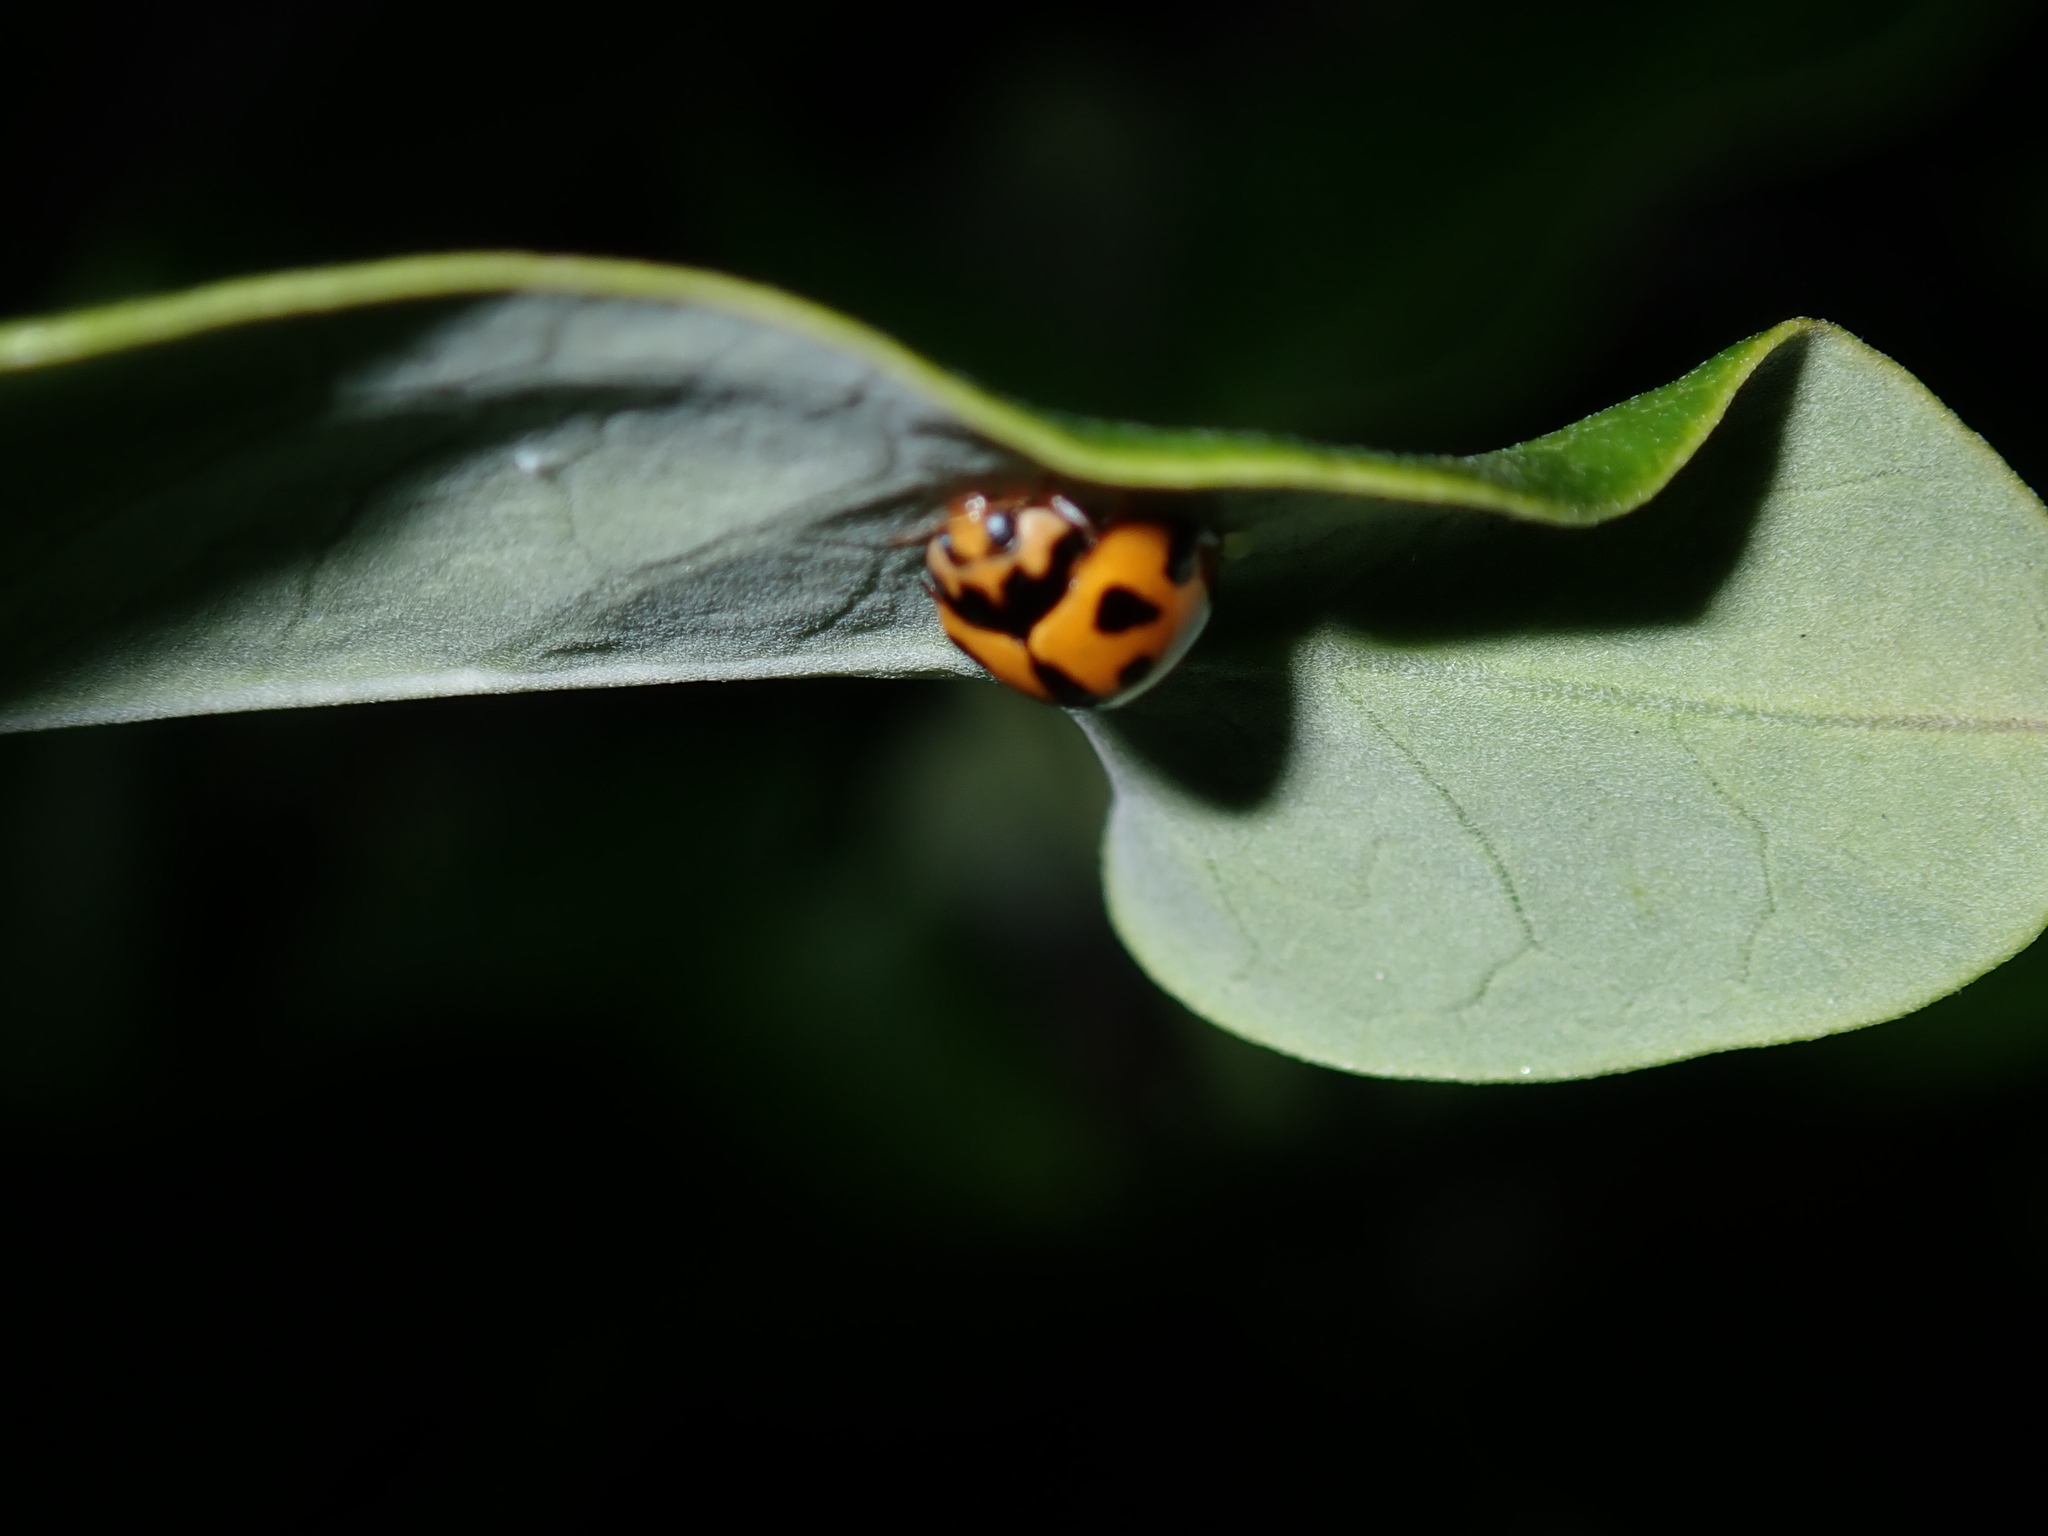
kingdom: Animalia
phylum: Arthropoda
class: Insecta
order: Coleoptera
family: Coccinellidae
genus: Coelophora
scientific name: Coelophora inaequalis
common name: Common australian lady beetle
